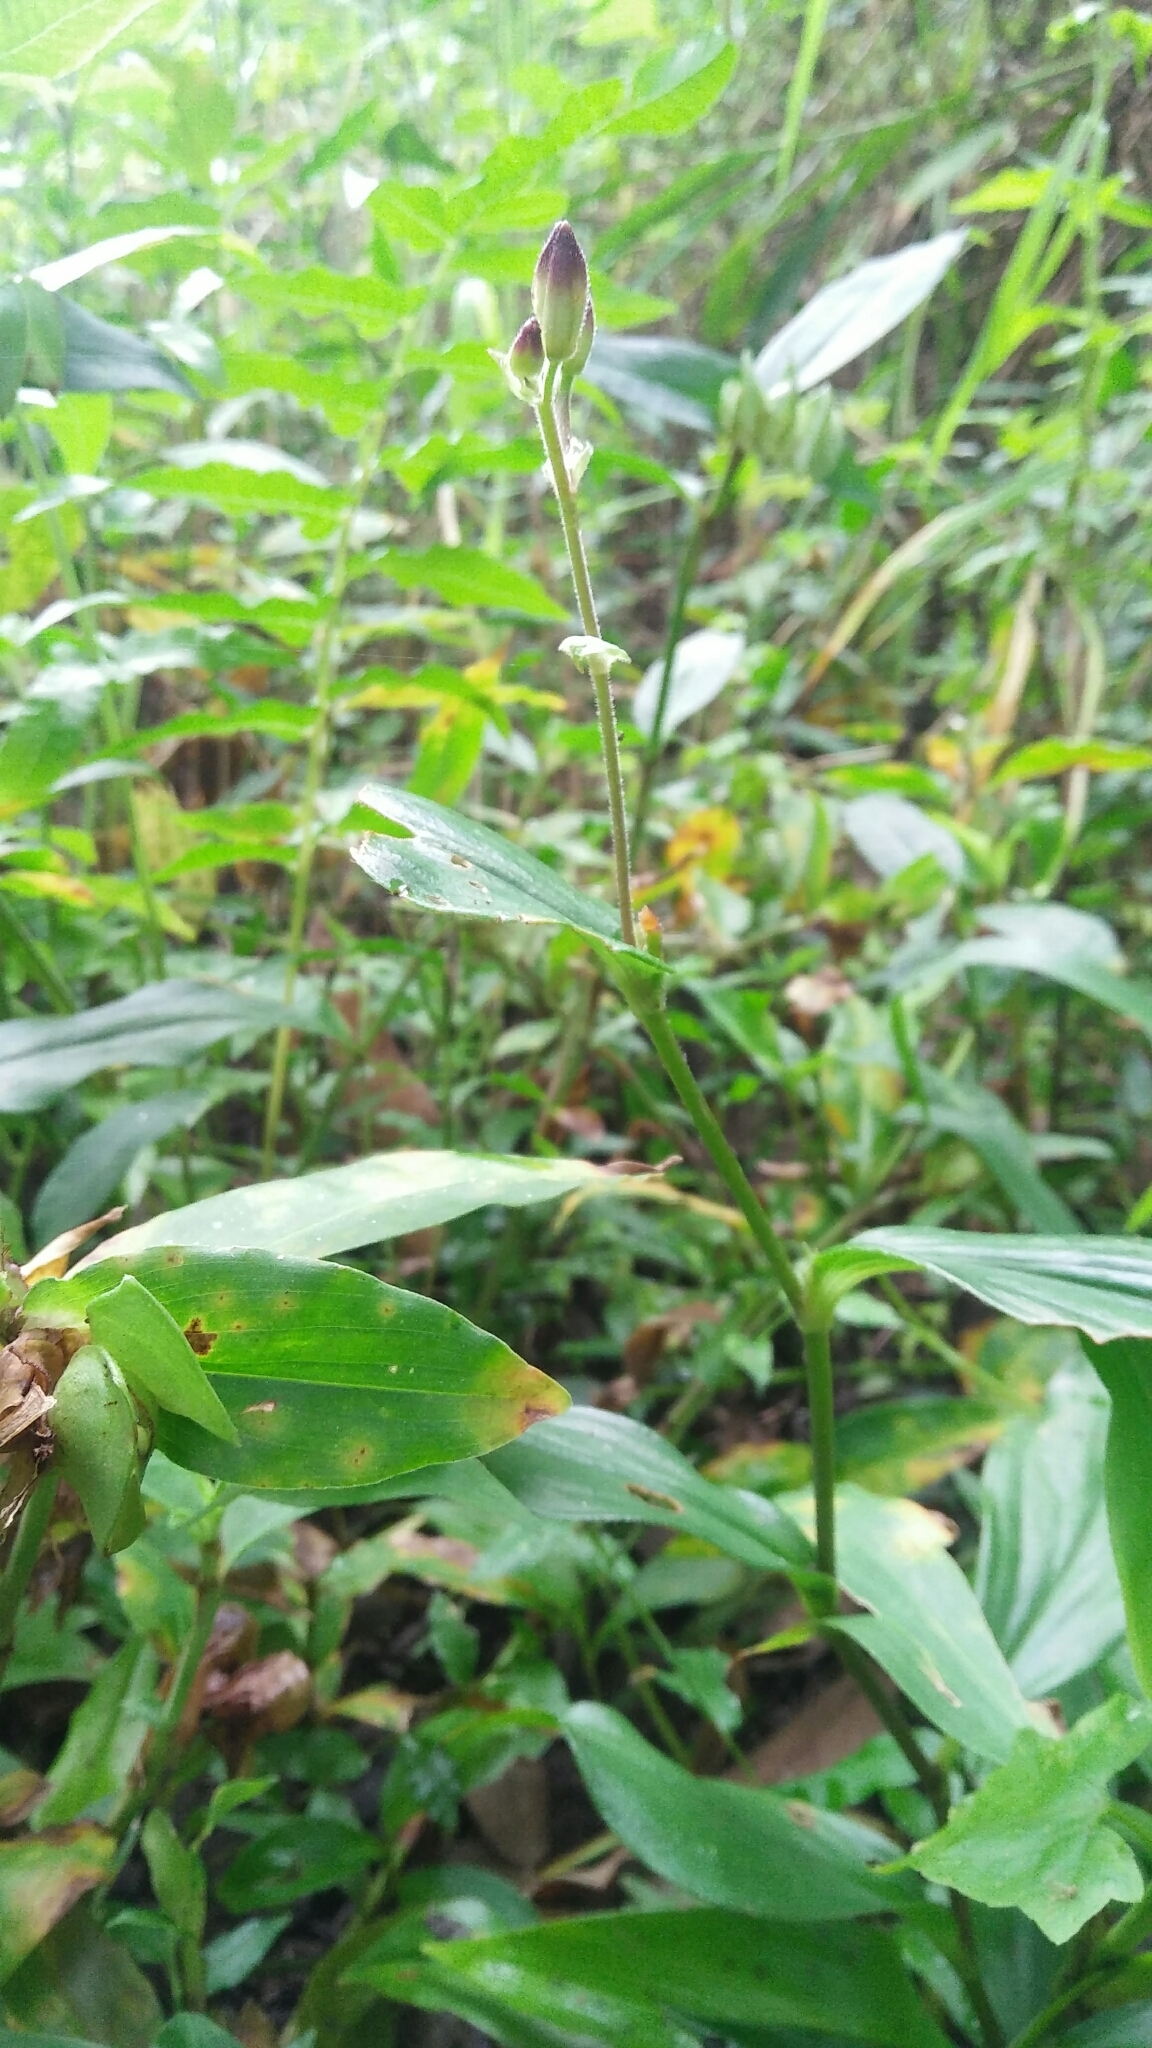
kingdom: Plantae
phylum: Tracheophyta
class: Liliopsida
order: Liliales
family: Liliaceae
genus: Tricyrtis
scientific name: Tricyrtis formosana
